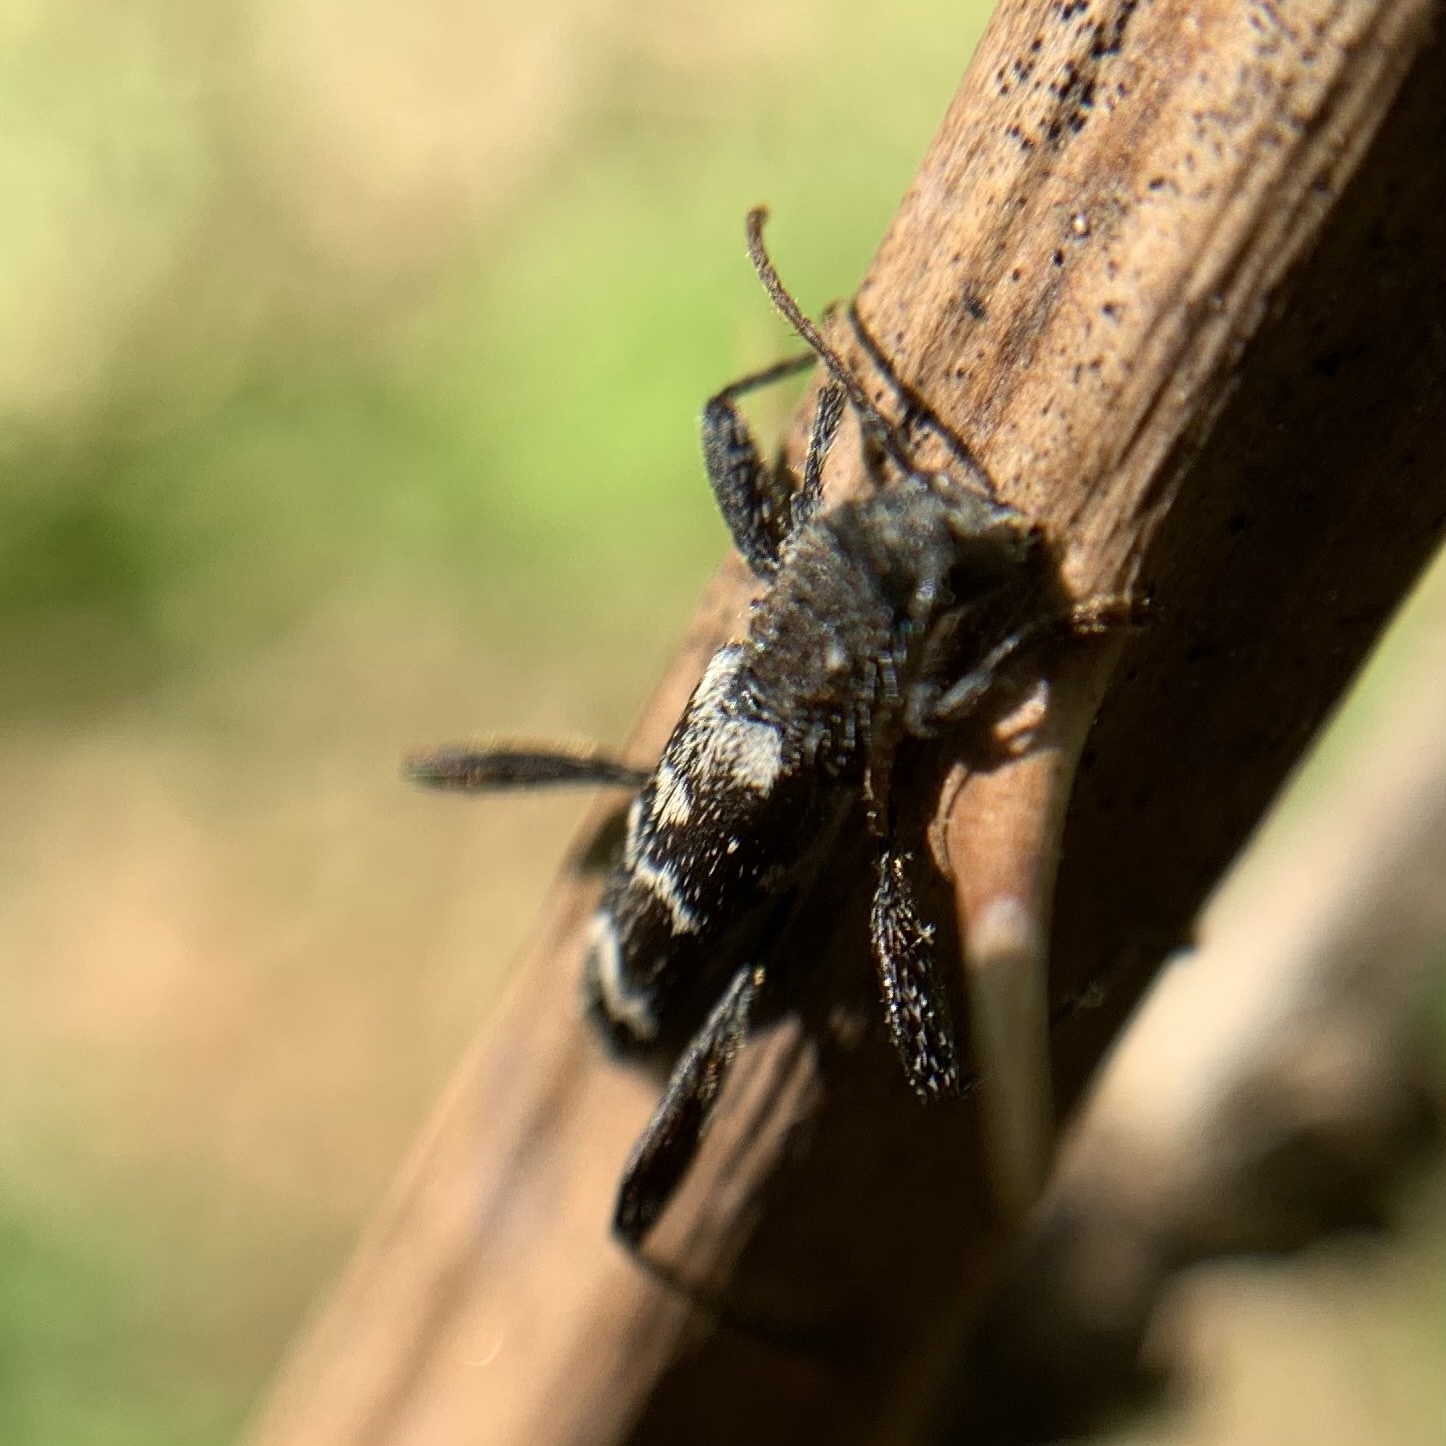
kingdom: Animalia
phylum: Arthropoda
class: Insecta
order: Coleoptera
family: Cerambycidae
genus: Neoclytus
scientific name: Neoclytus horridus
